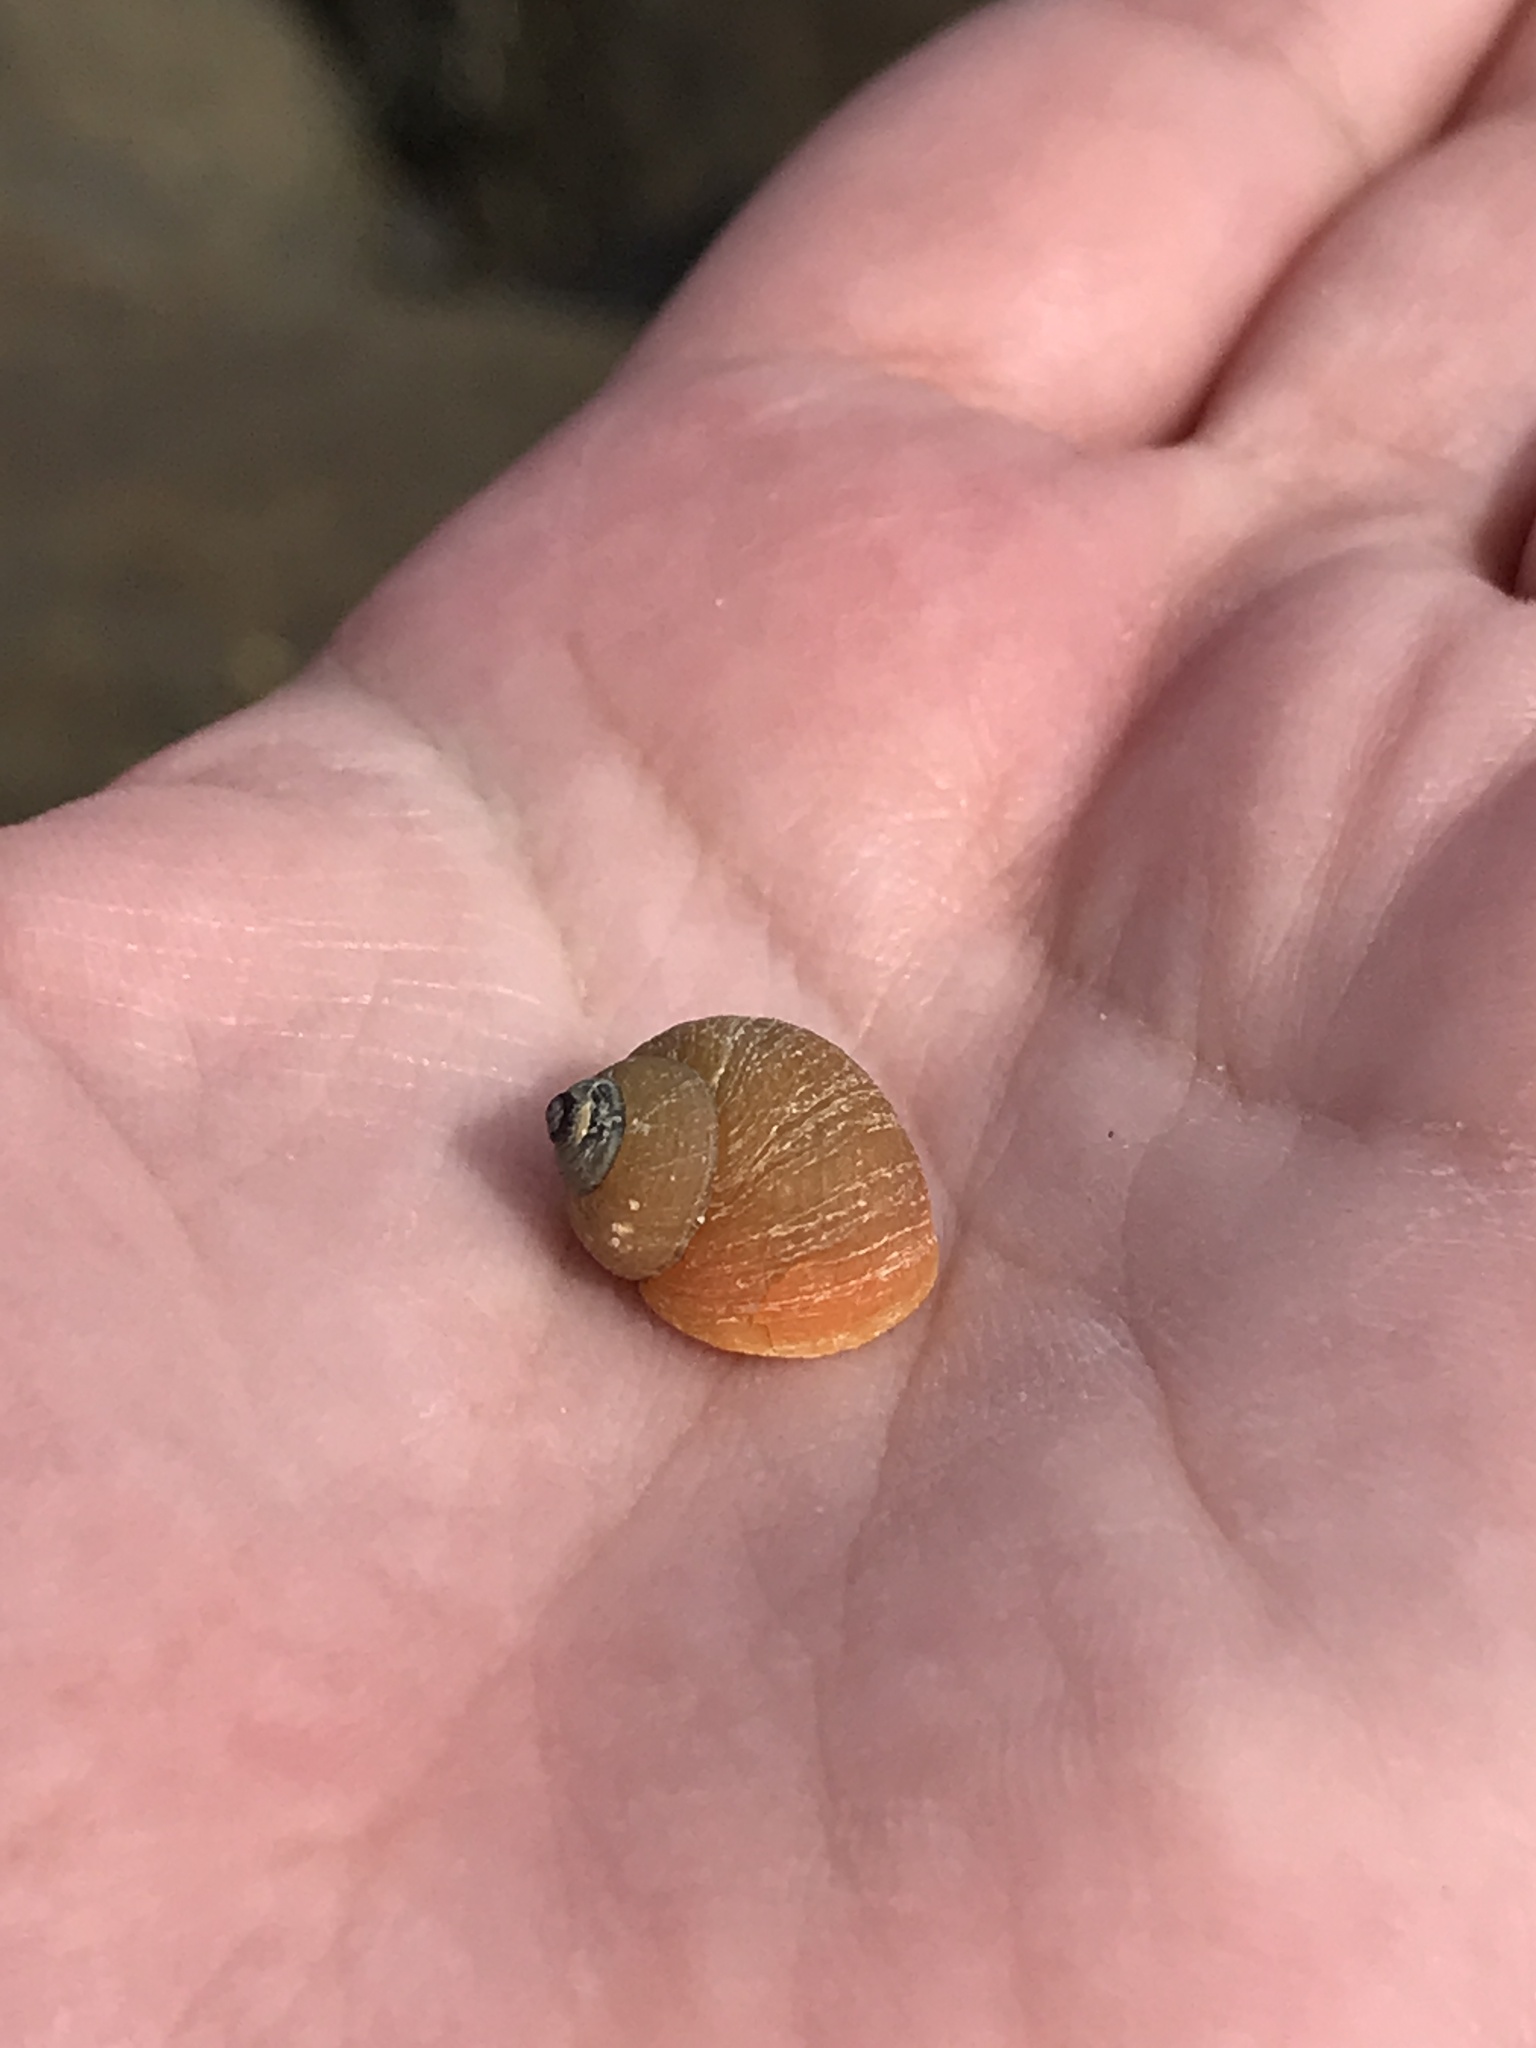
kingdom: Animalia
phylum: Mollusca
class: Gastropoda
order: Littorinimorpha
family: Littorinidae
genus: Littorina
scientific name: Littorina saxatilis
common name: Black-lined periwinkle
